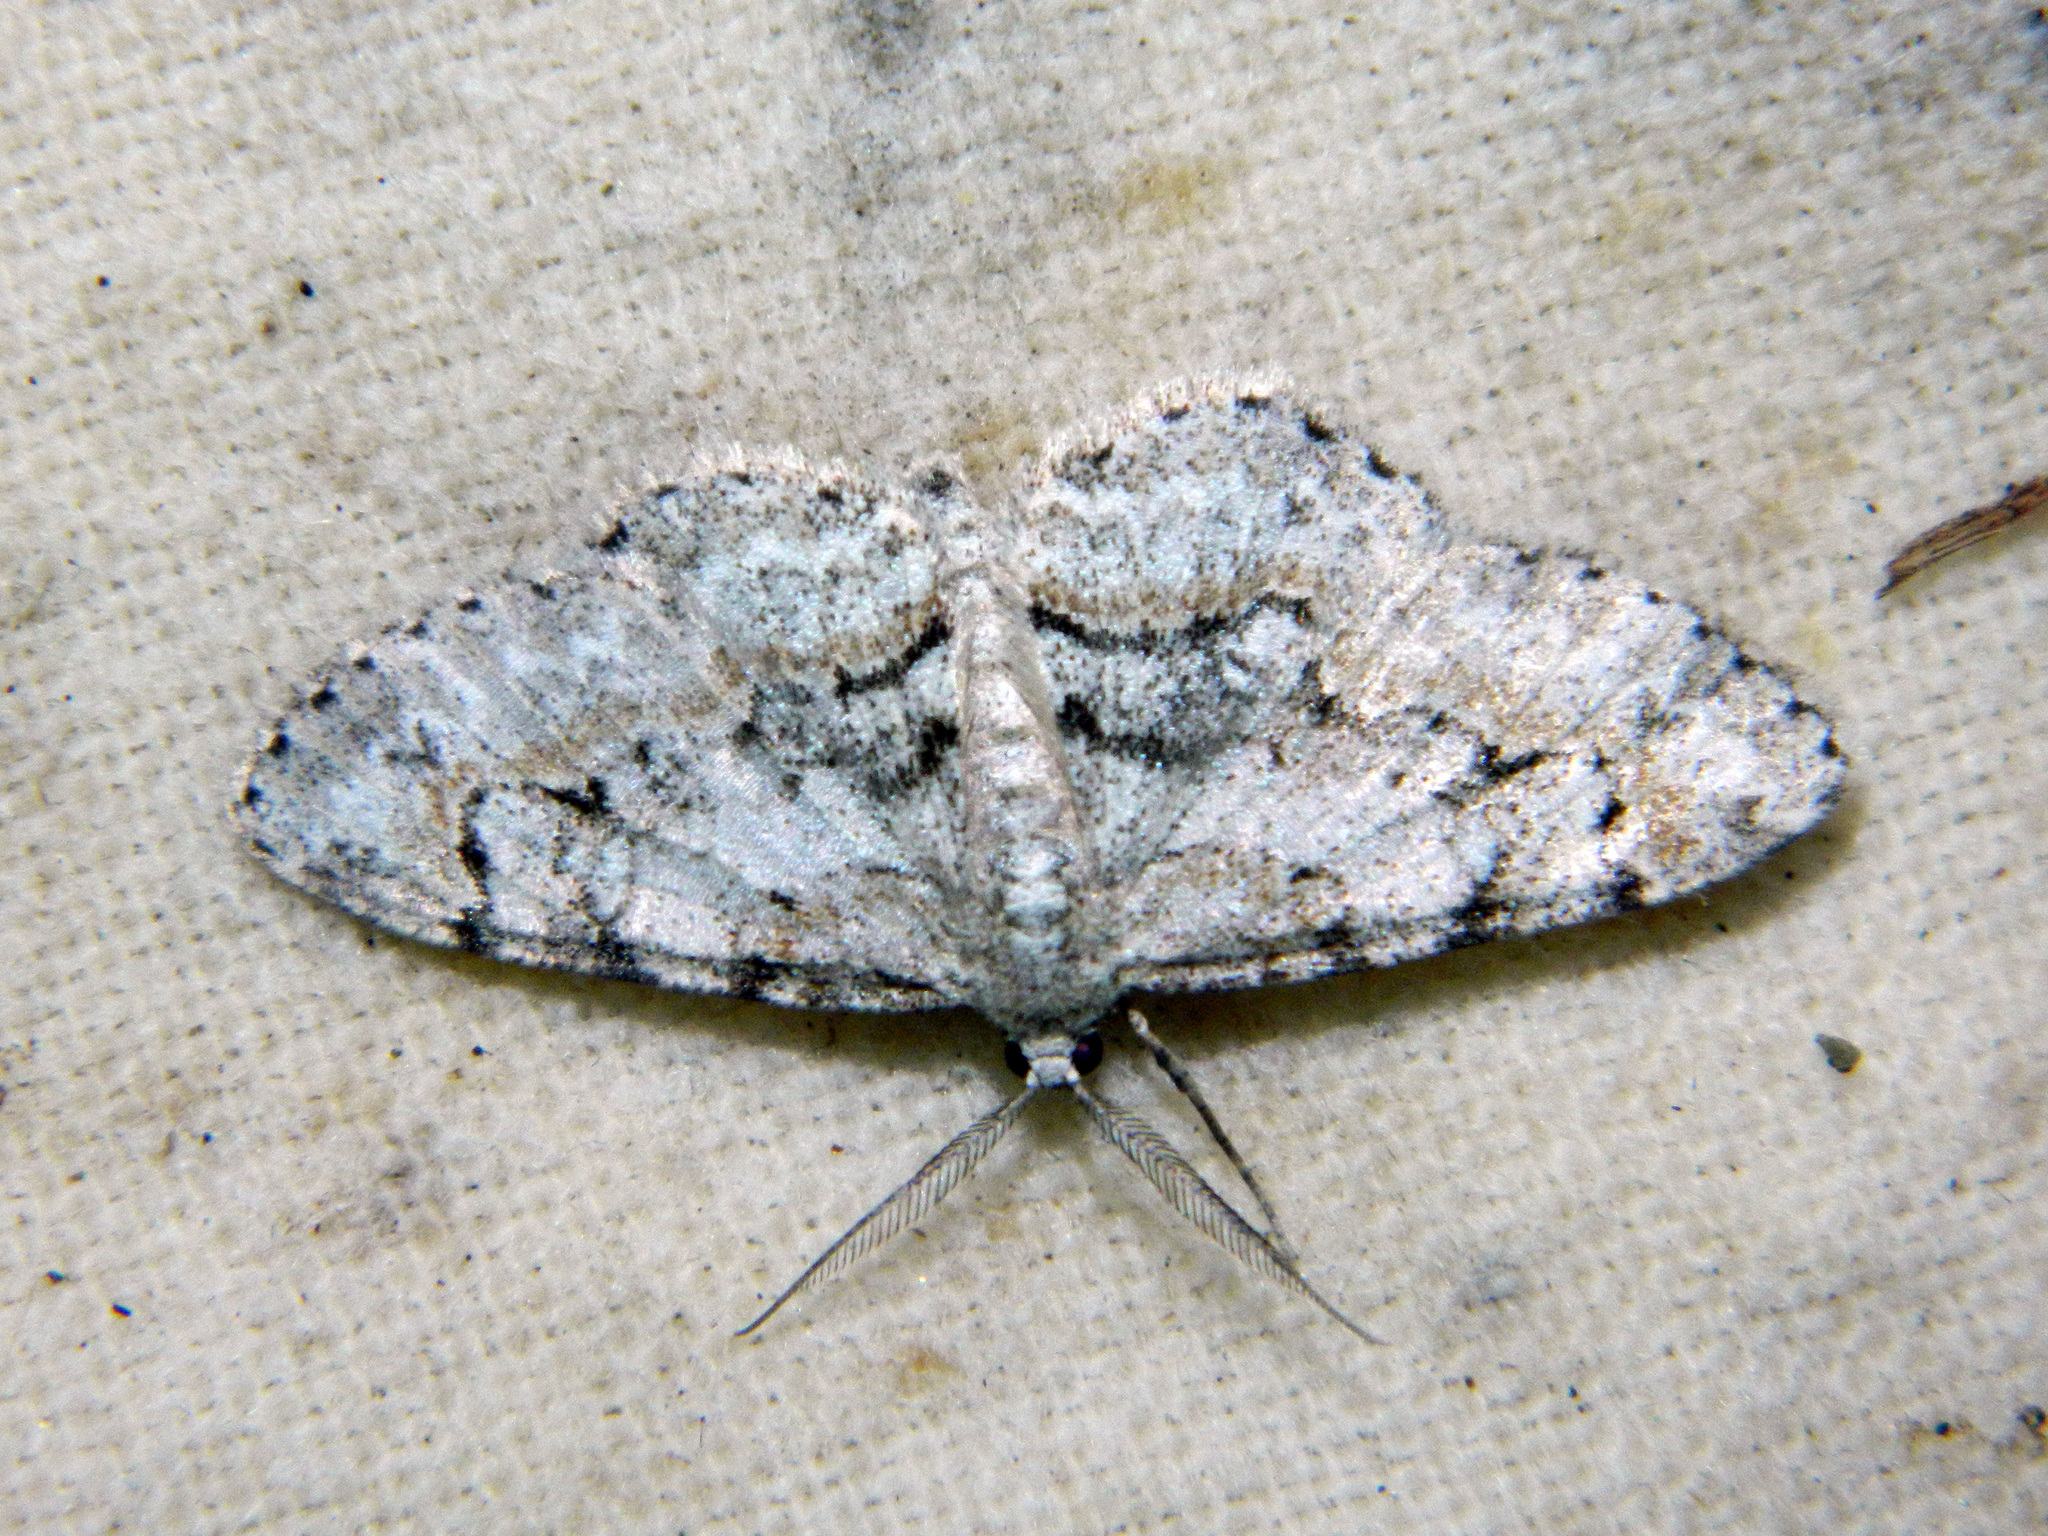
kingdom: Animalia
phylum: Arthropoda
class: Insecta
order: Lepidoptera
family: Geometridae
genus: Iridopsis
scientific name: Iridopsis ephyraria
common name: Pale-winged gray
